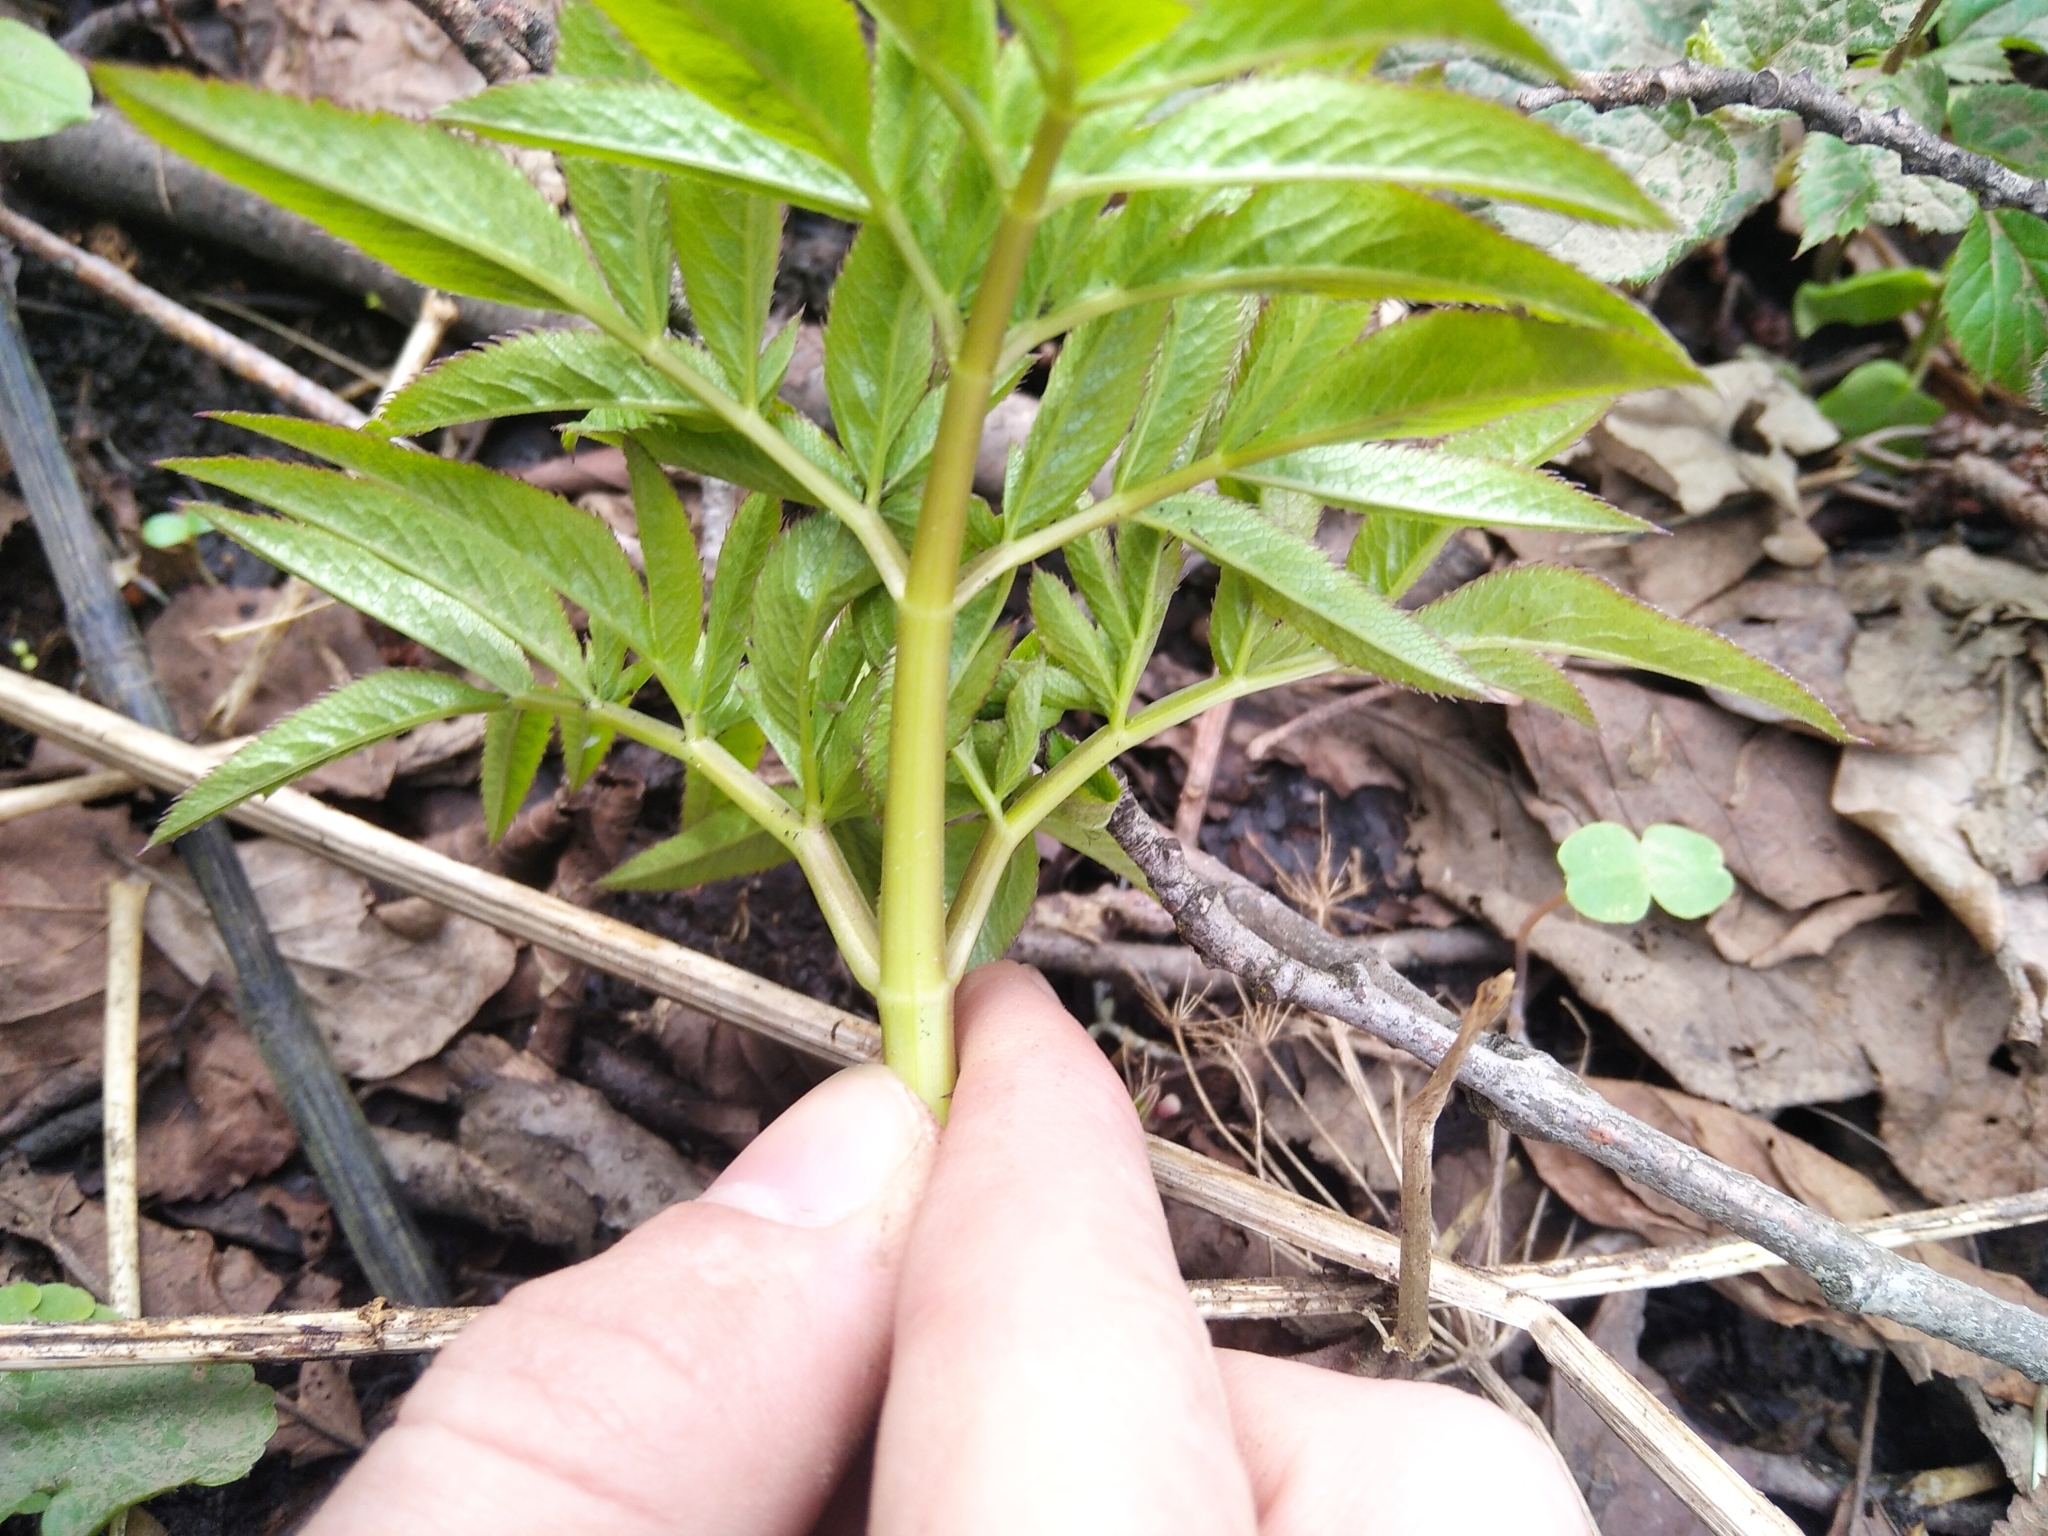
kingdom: Plantae
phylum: Tracheophyta
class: Magnoliopsida
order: Apiales
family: Apiaceae
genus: Angelica
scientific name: Angelica sylvestris
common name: Wild angelica
